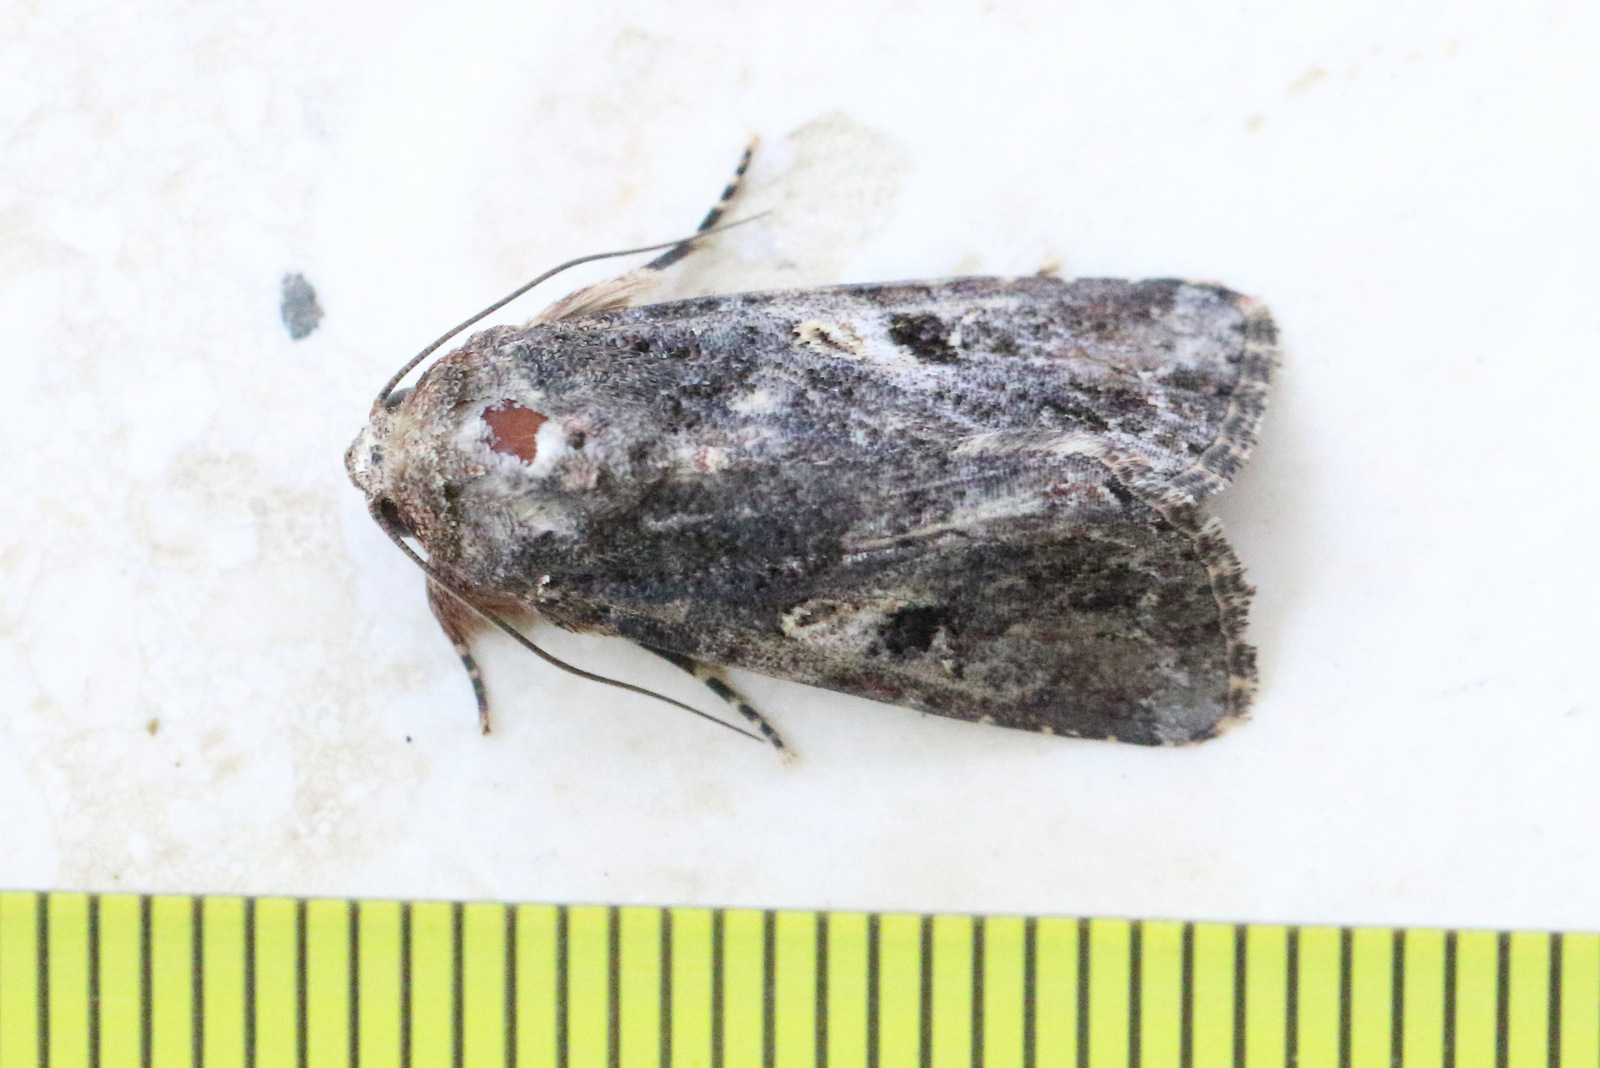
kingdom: Animalia
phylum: Arthropoda
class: Insecta
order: Lepidoptera
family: Noctuidae
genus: Spodoptera
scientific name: Spodoptera mauritia
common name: Lawn armyworm
